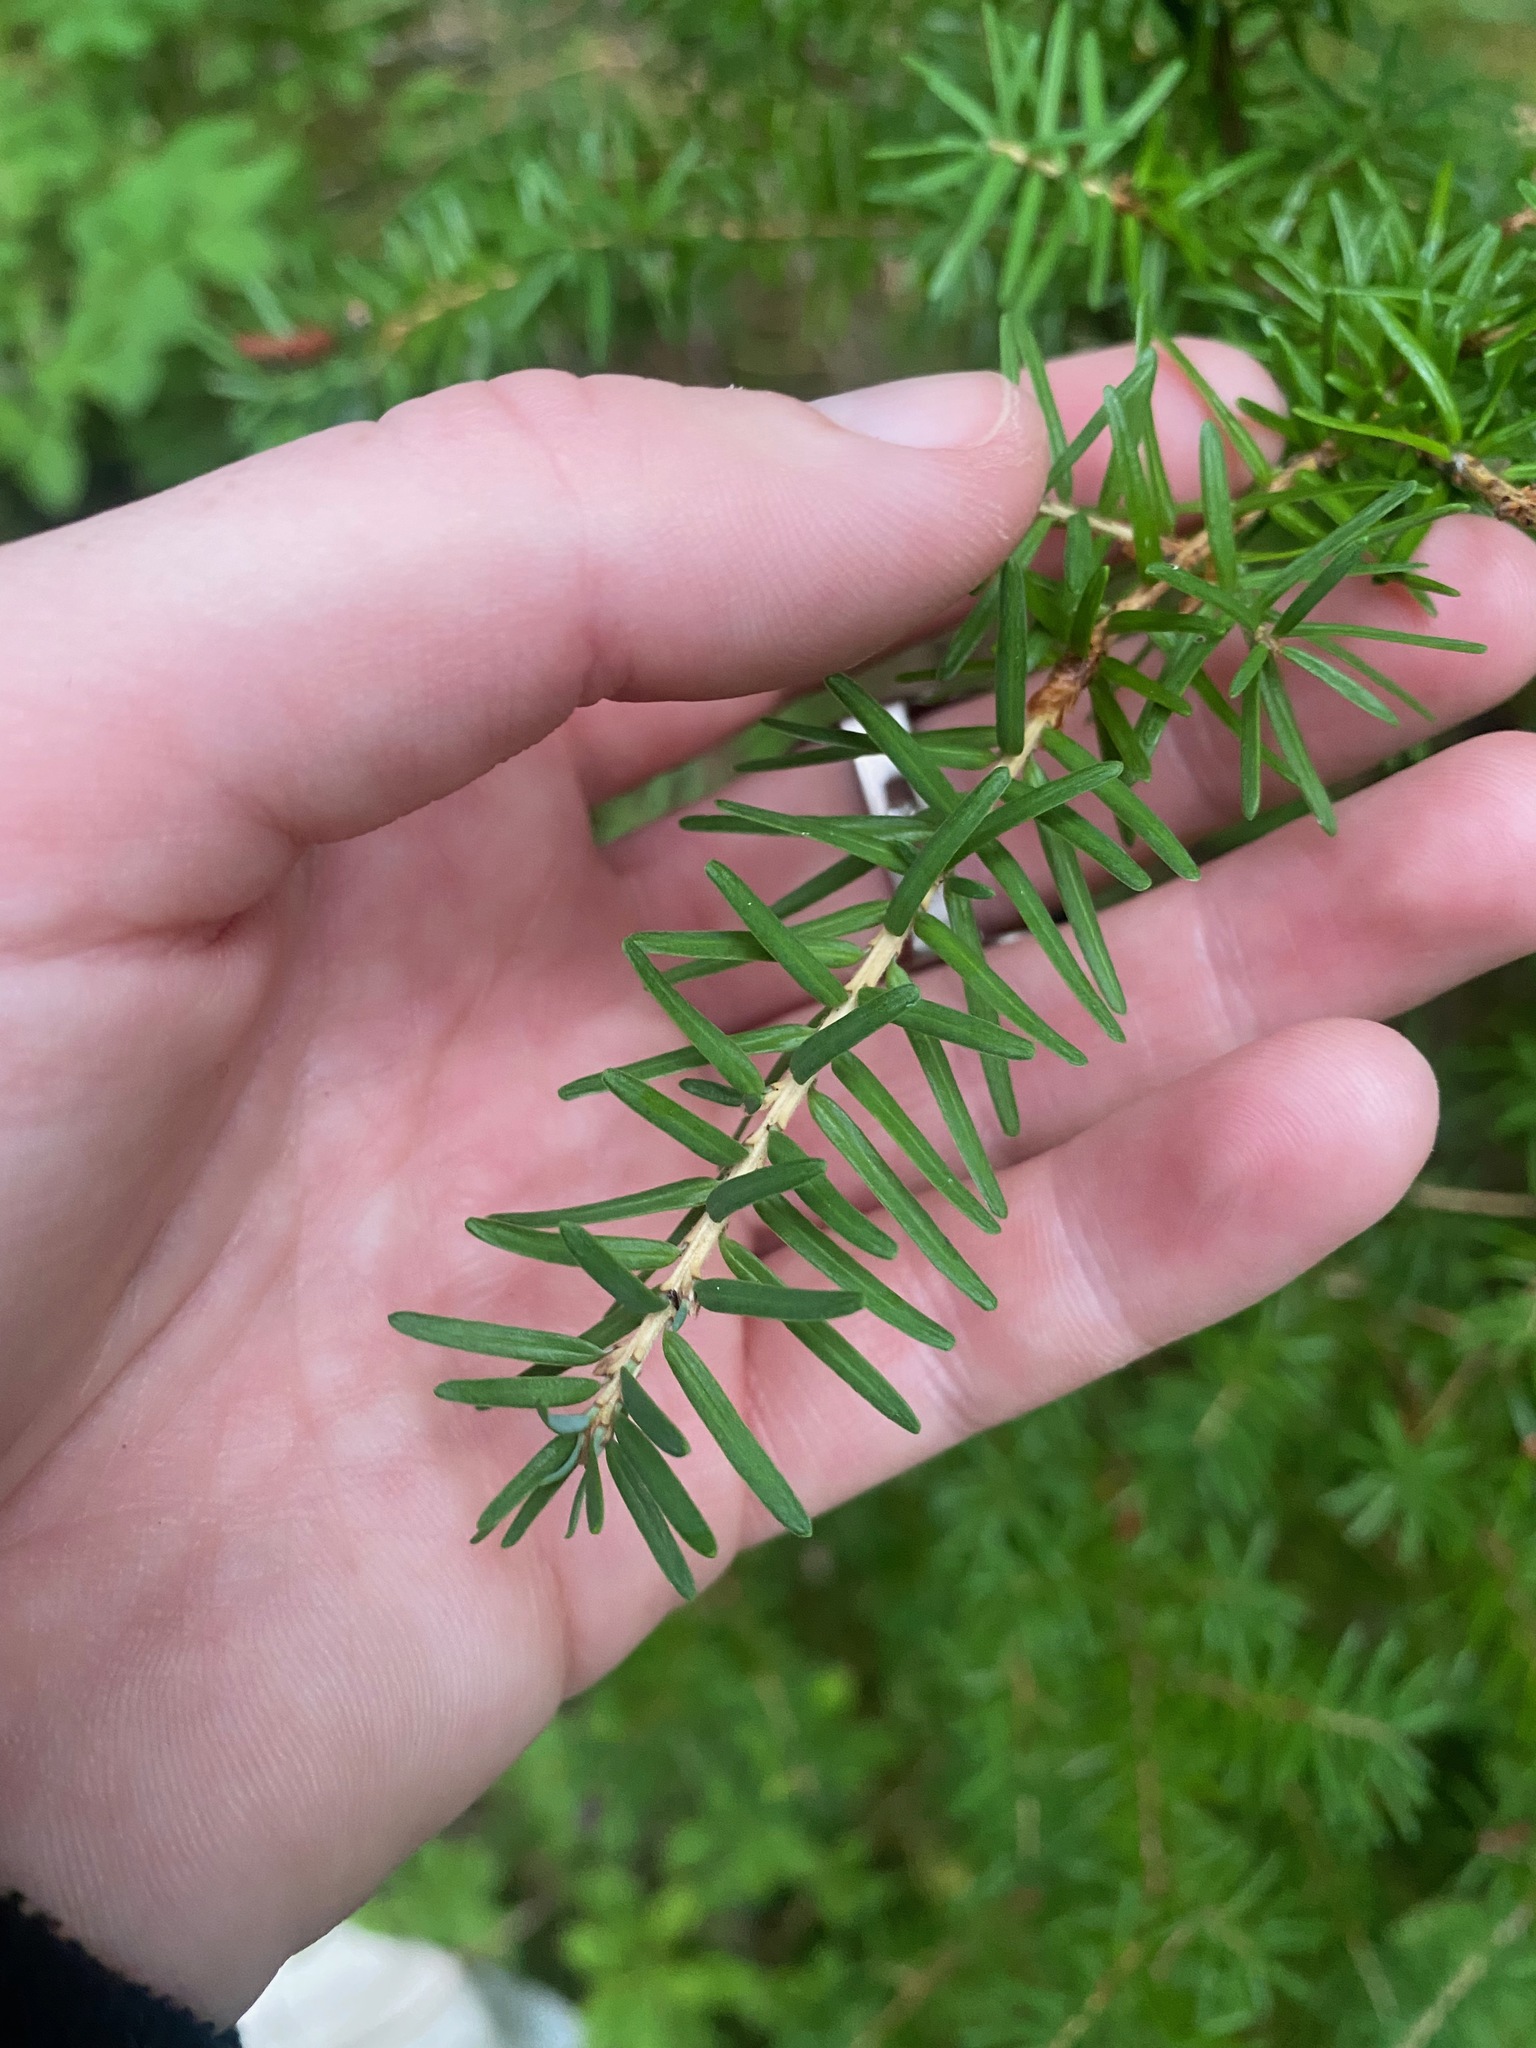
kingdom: Plantae
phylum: Tracheophyta
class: Pinopsida
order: Pinales
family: Pinaceae
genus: Tsuga
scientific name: Tsuga heterophylla
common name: Western hemlock
